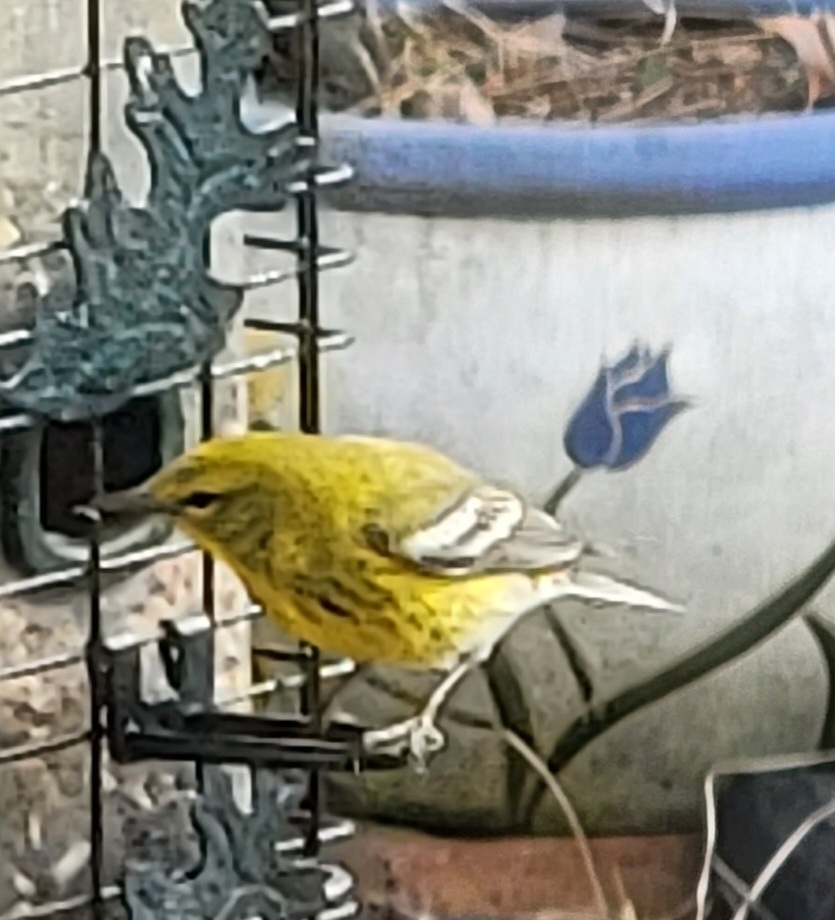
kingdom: Animalia
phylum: Chordata
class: Aves
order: Passeriformes
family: Parulidae
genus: Setophaga
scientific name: Setophaga pinus
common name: Pine warbler
